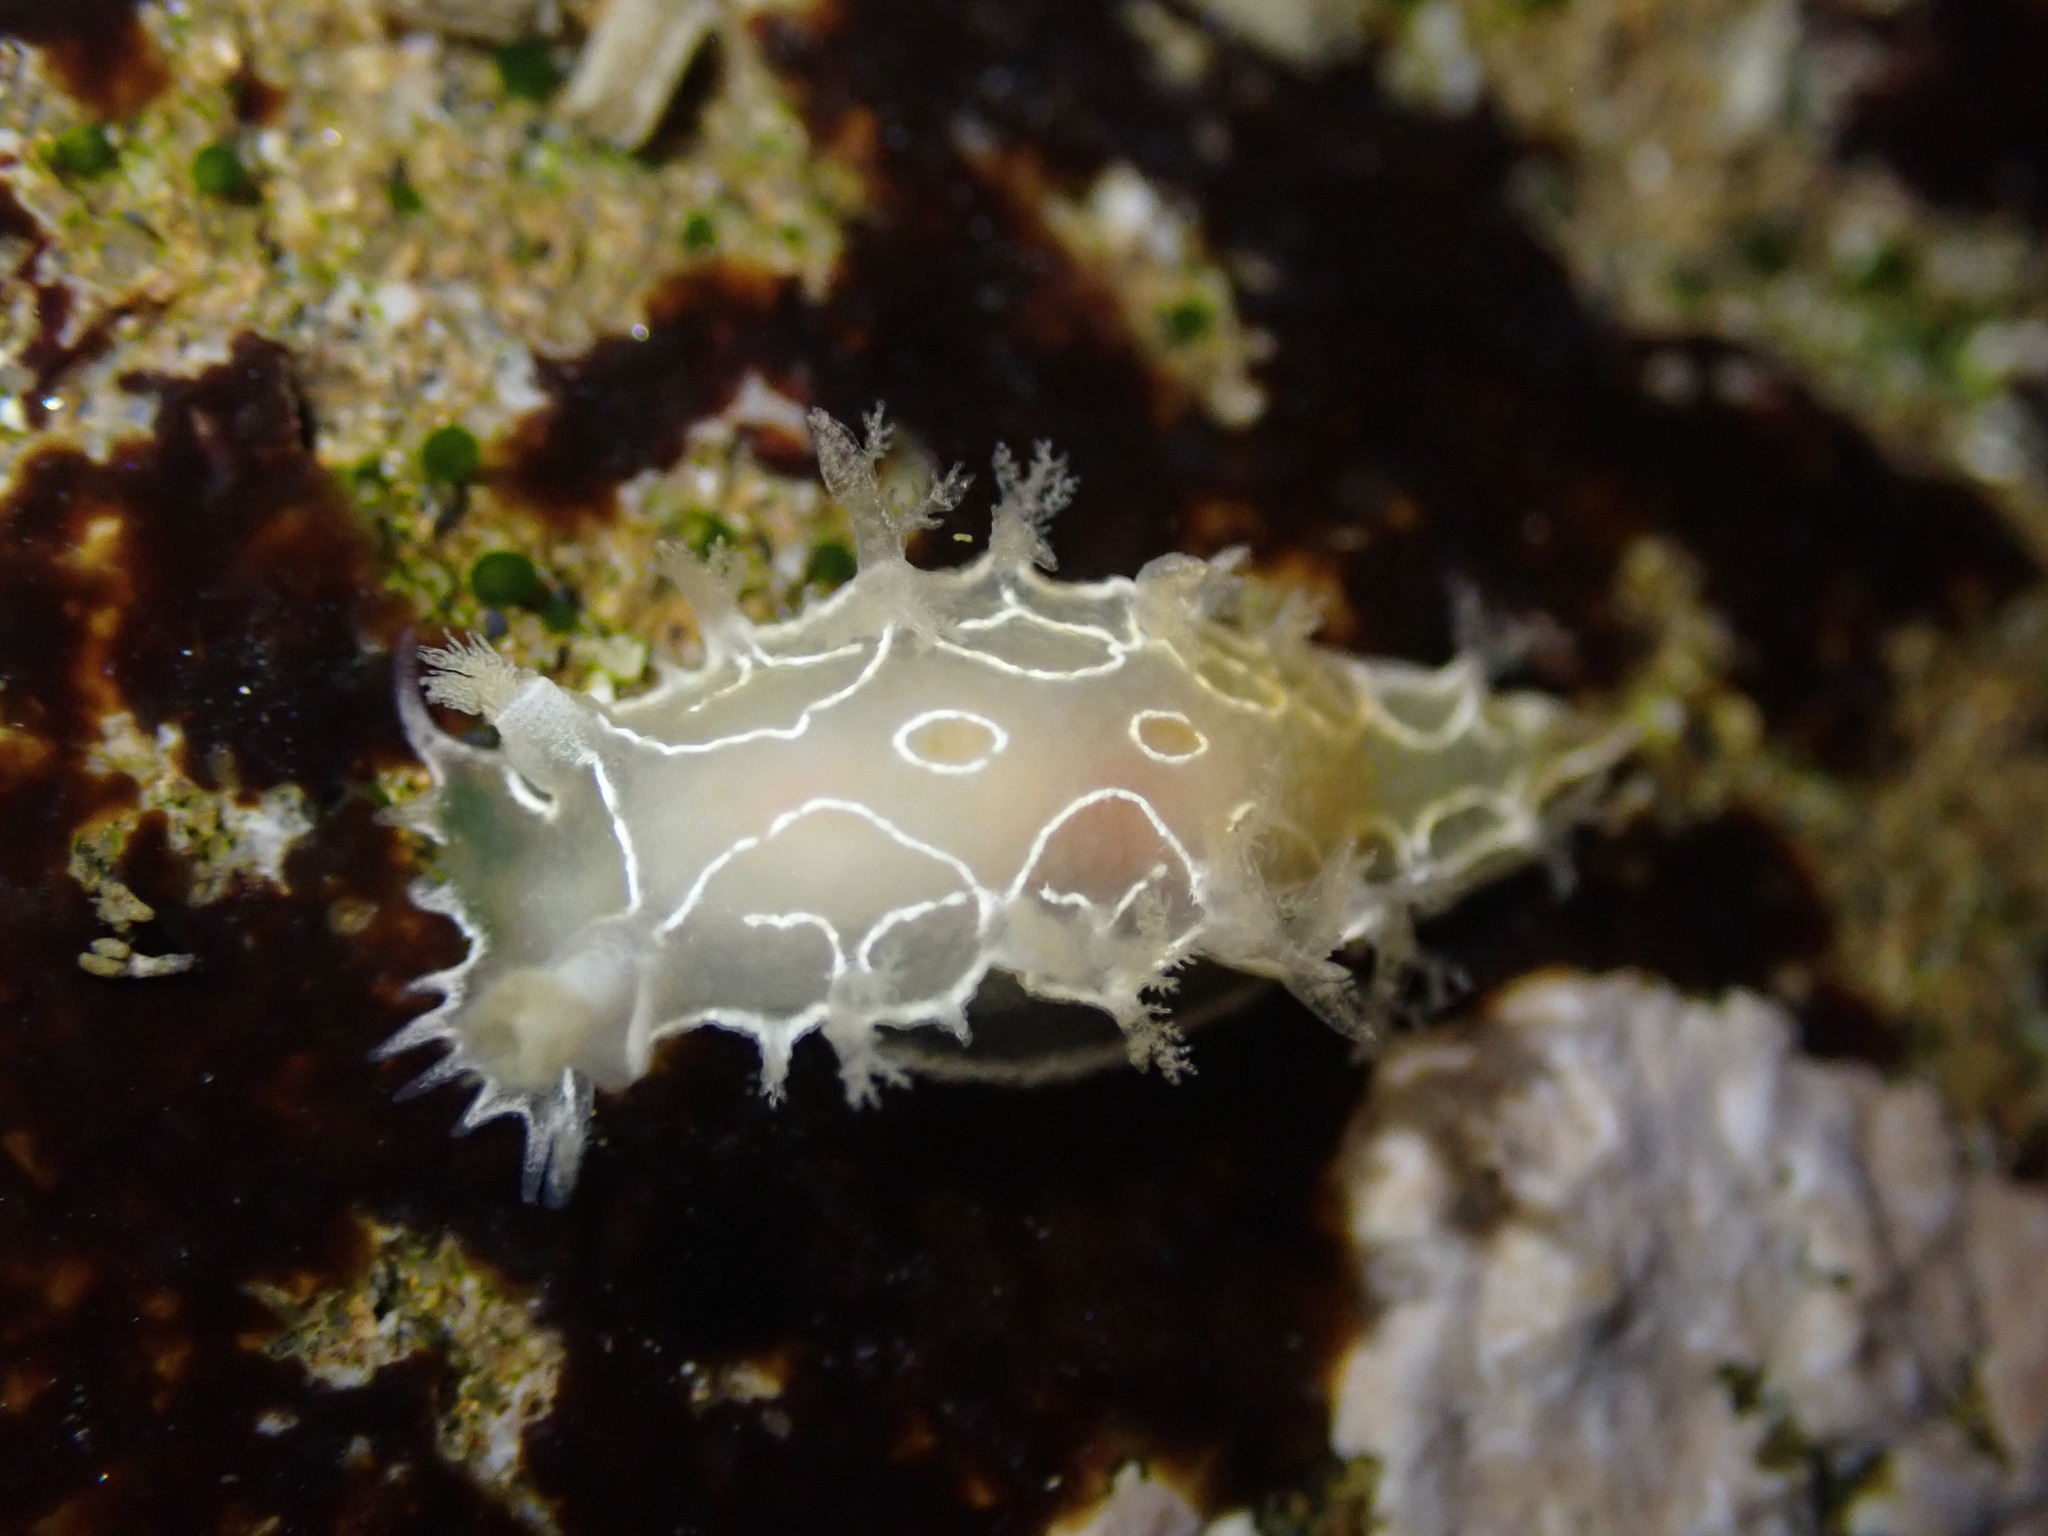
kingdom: Animalia
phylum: Mollusca
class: Gastropoda
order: Nudibranchia
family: Tritoniidae
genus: Tritonia
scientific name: Tritonia festiva
